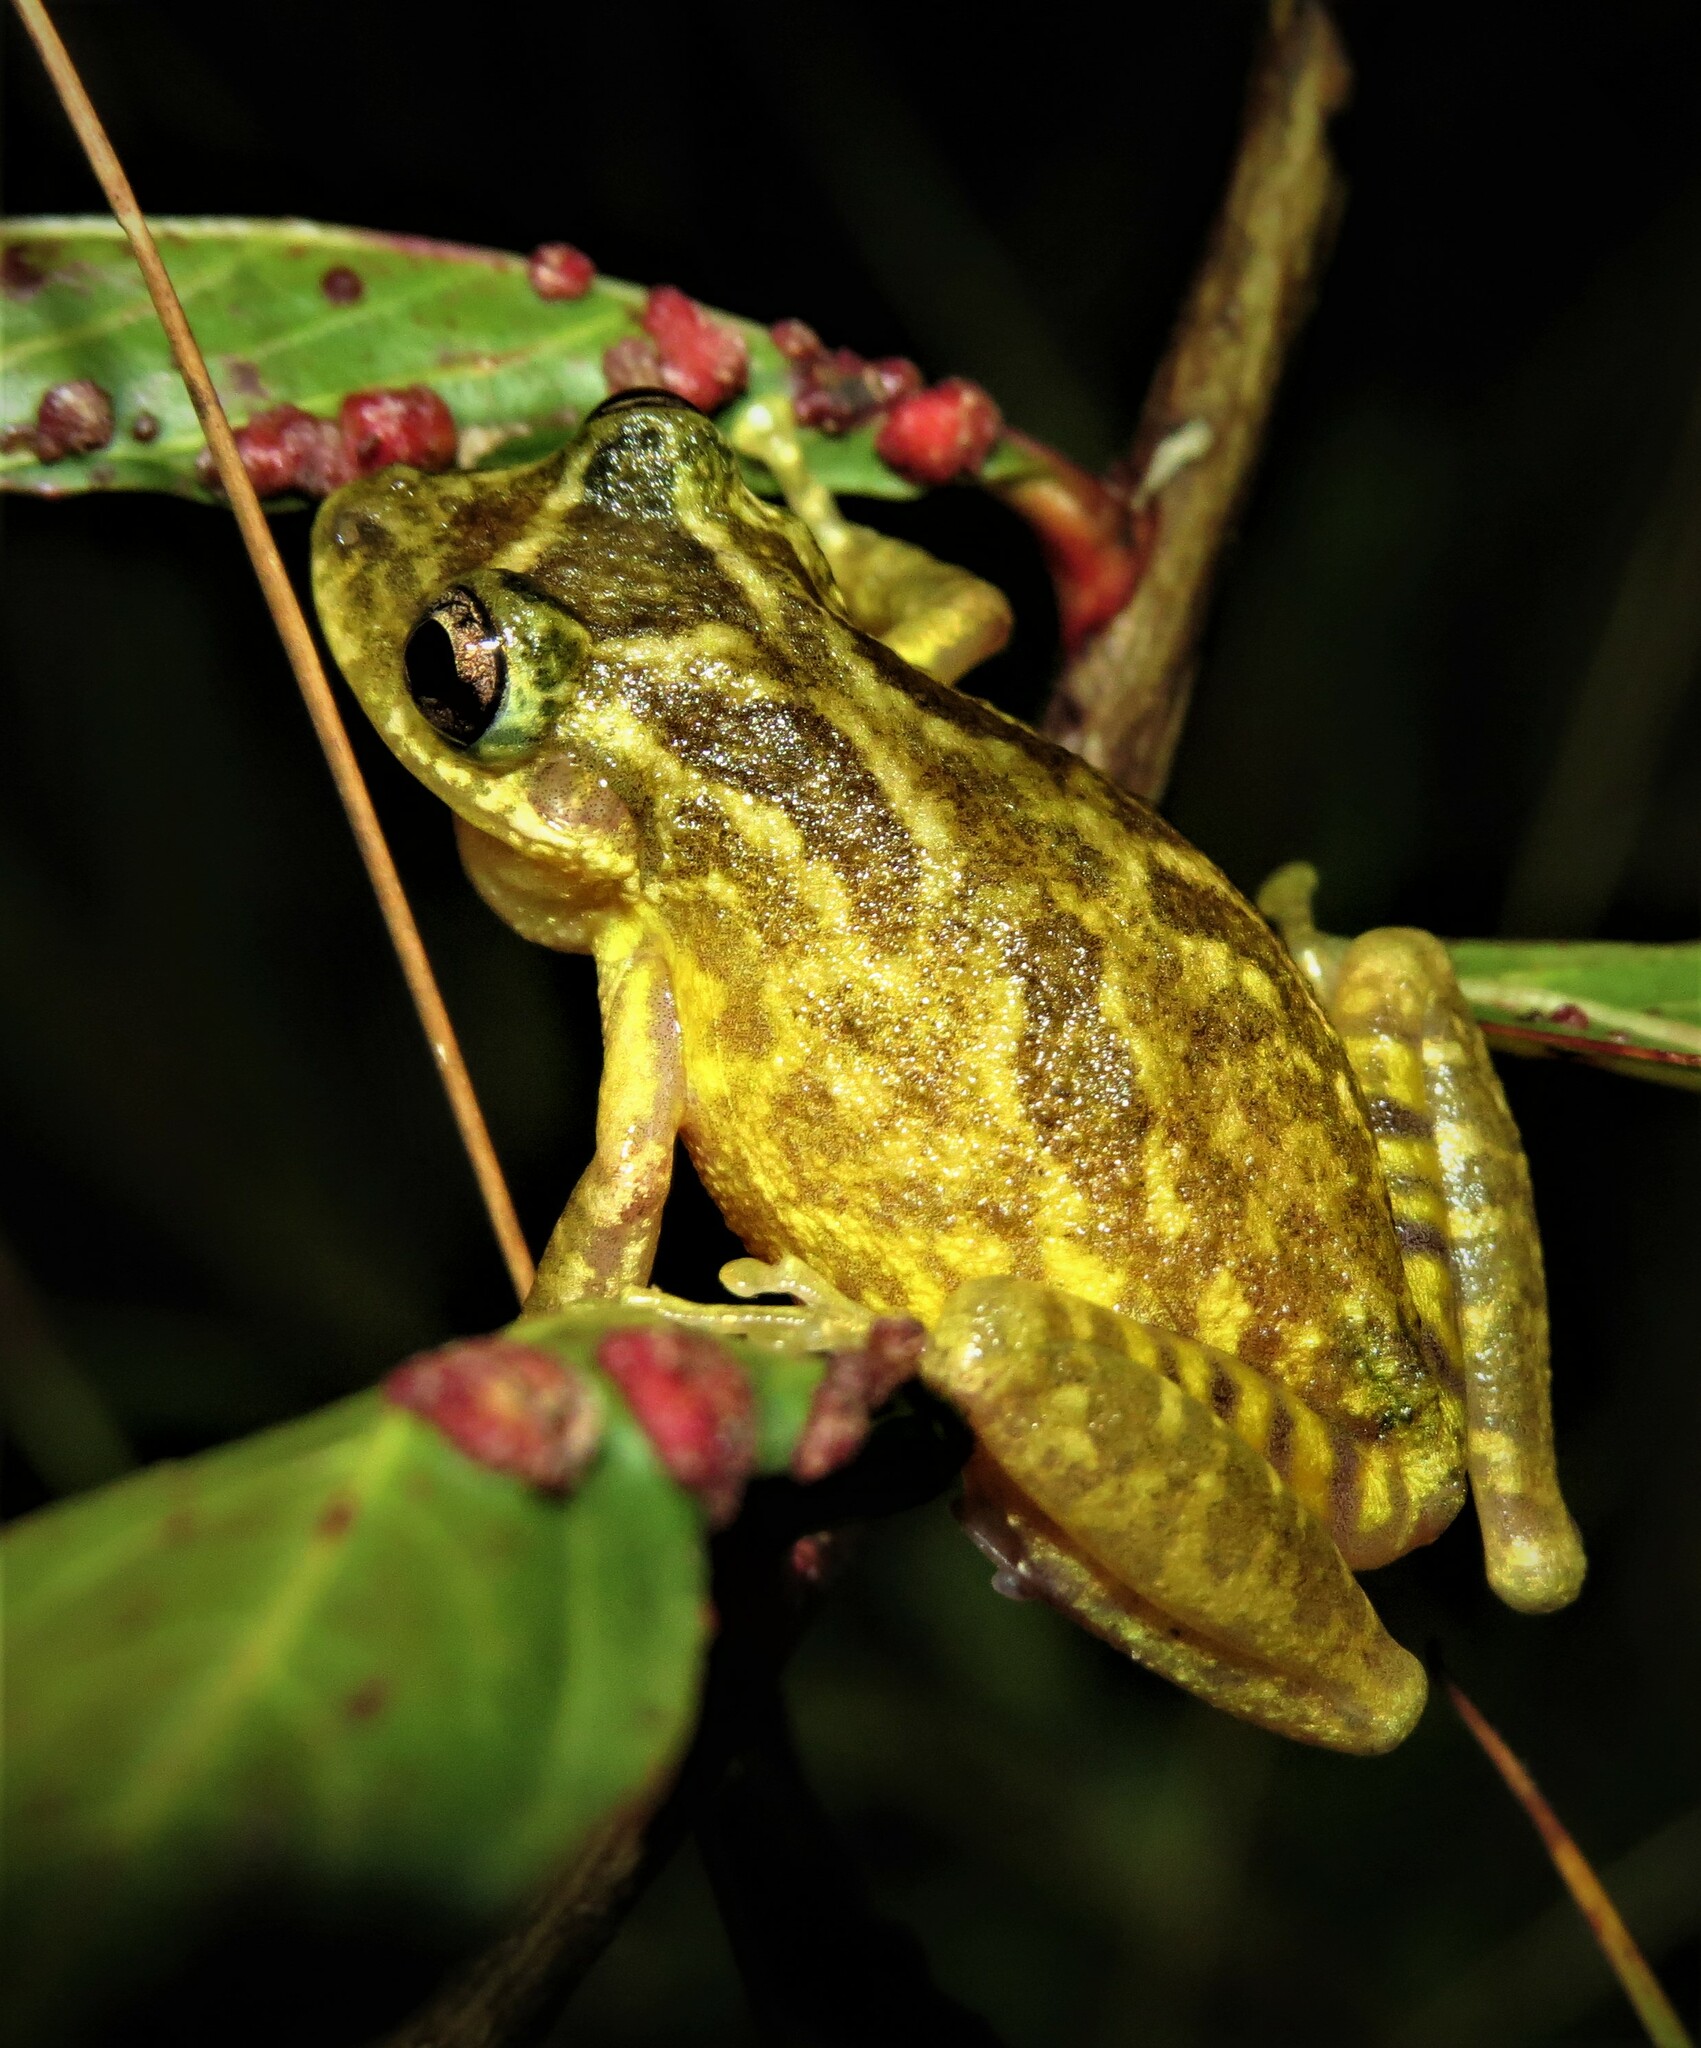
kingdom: Animalia
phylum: Chordata
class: Amphibia
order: Anura
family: Hylidae
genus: Scinax
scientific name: Scinax rogerioi
